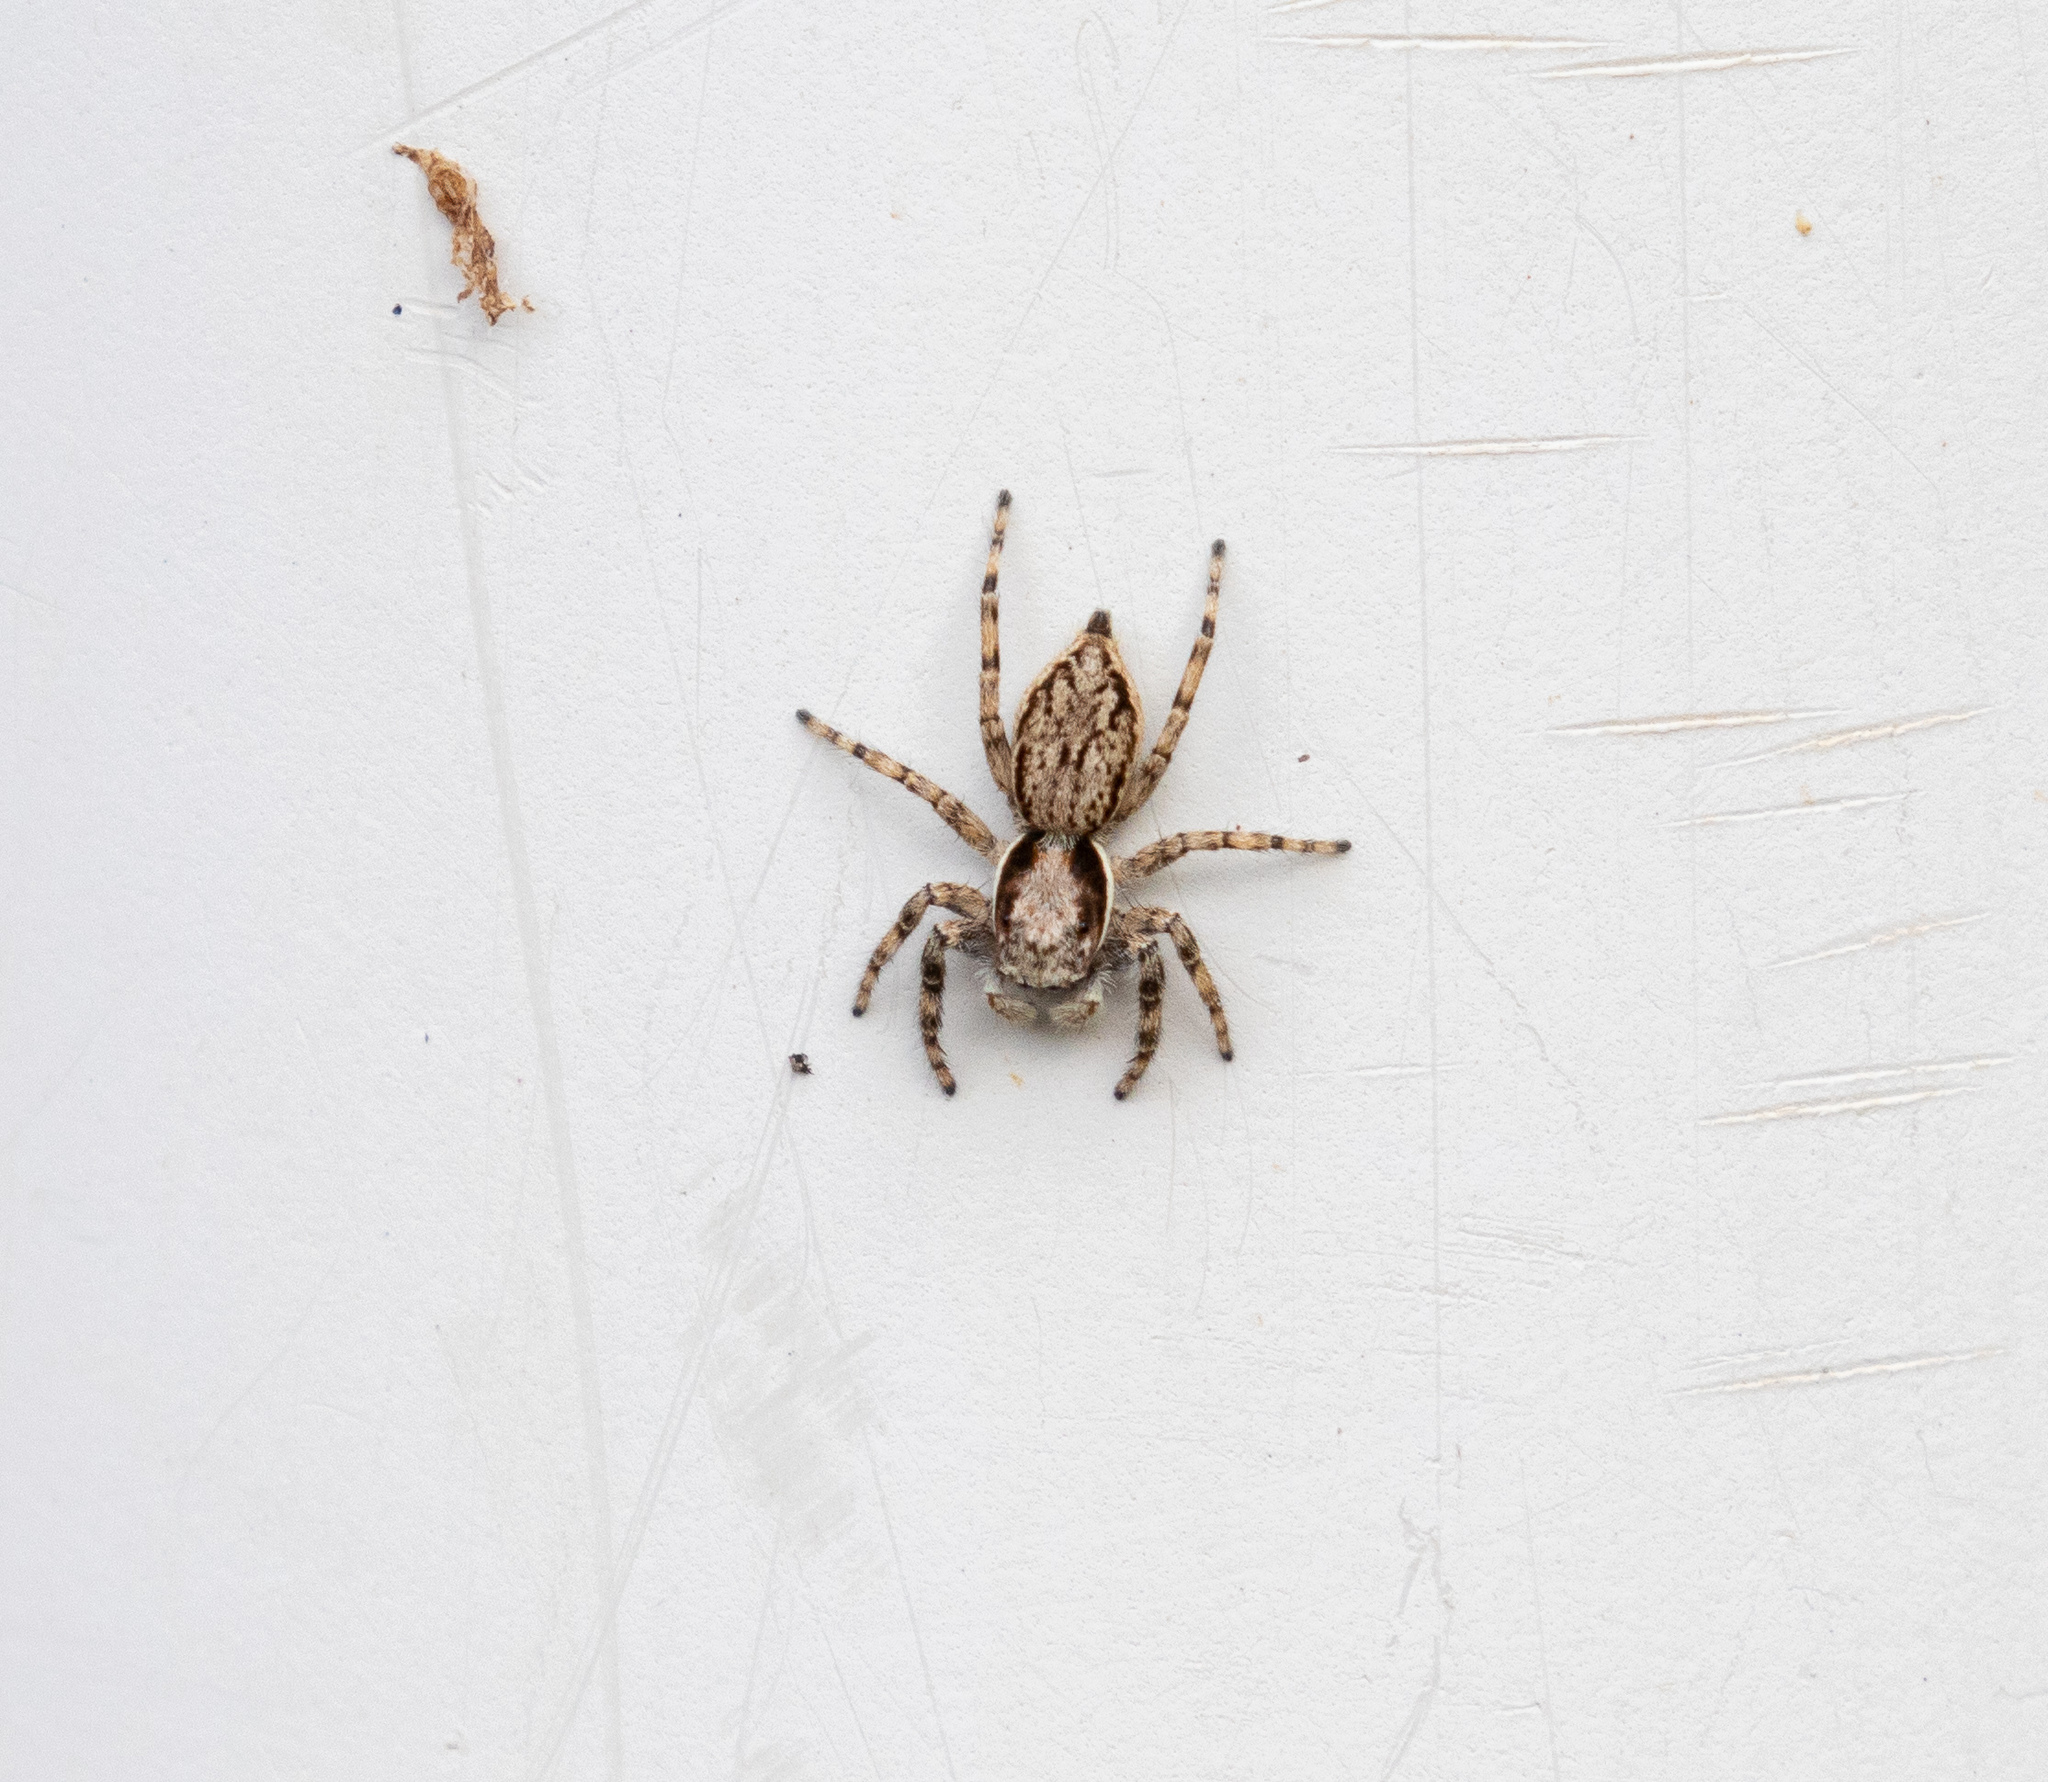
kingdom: Animalia
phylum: Arthropoda
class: Arachnida
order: Araneae
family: Salticidae
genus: Menemerus
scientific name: Menemerus bivittatus
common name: Gray wall jumper
